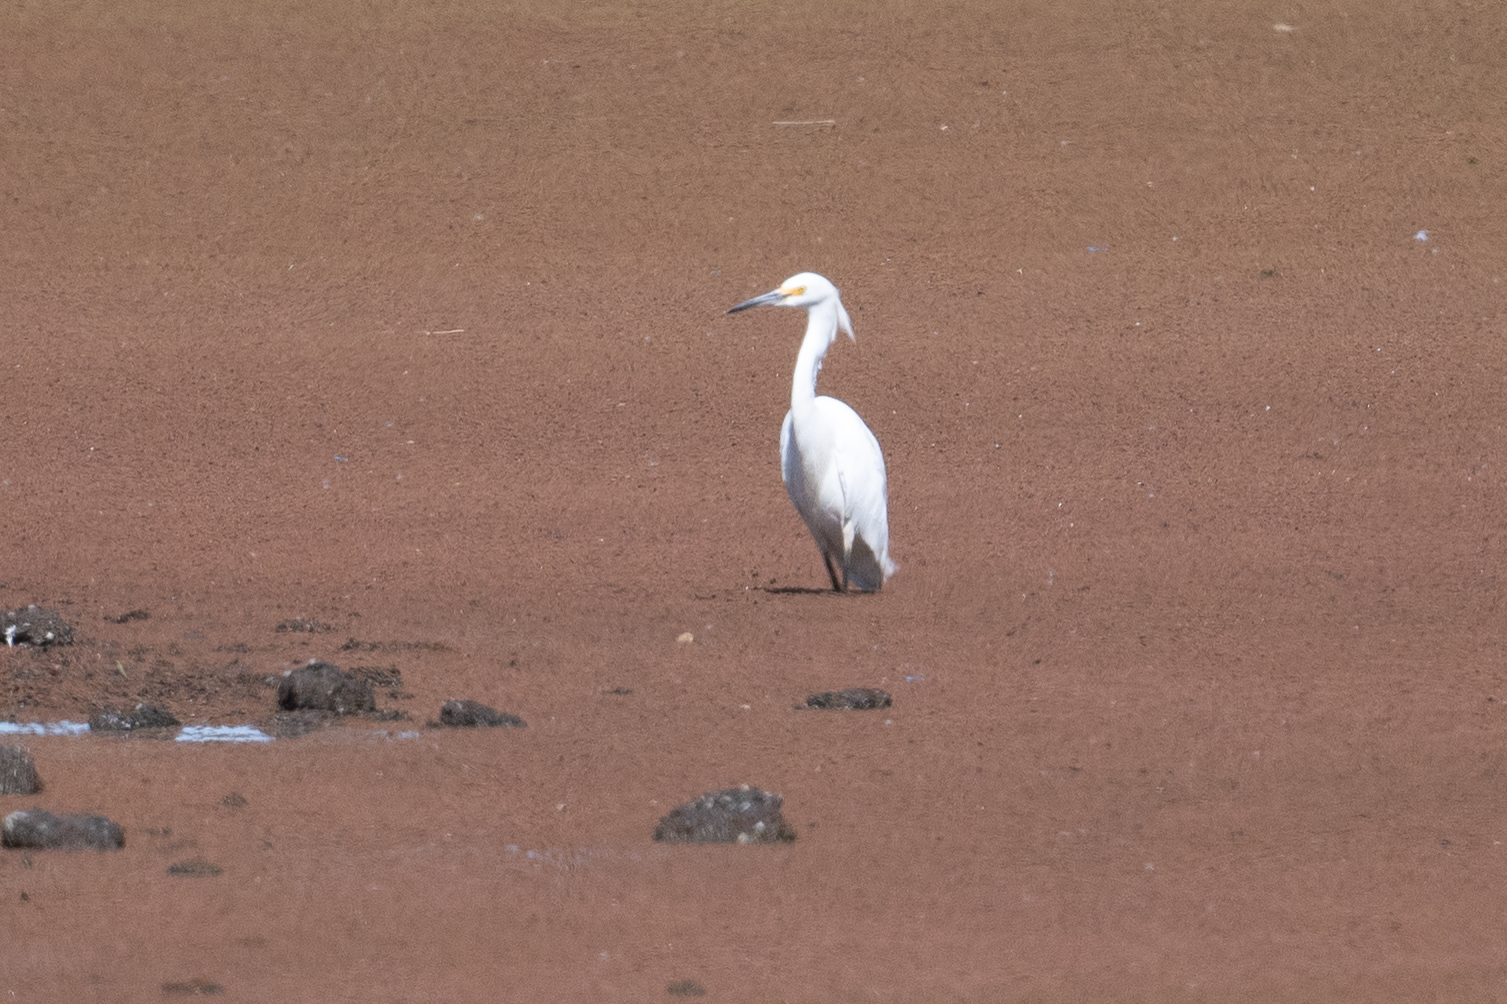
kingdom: Animalia
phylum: Chordata
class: Aves
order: Pelecaniformes
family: Ardeidae
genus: Egretta
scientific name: Egretta thula
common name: Snowy egret
